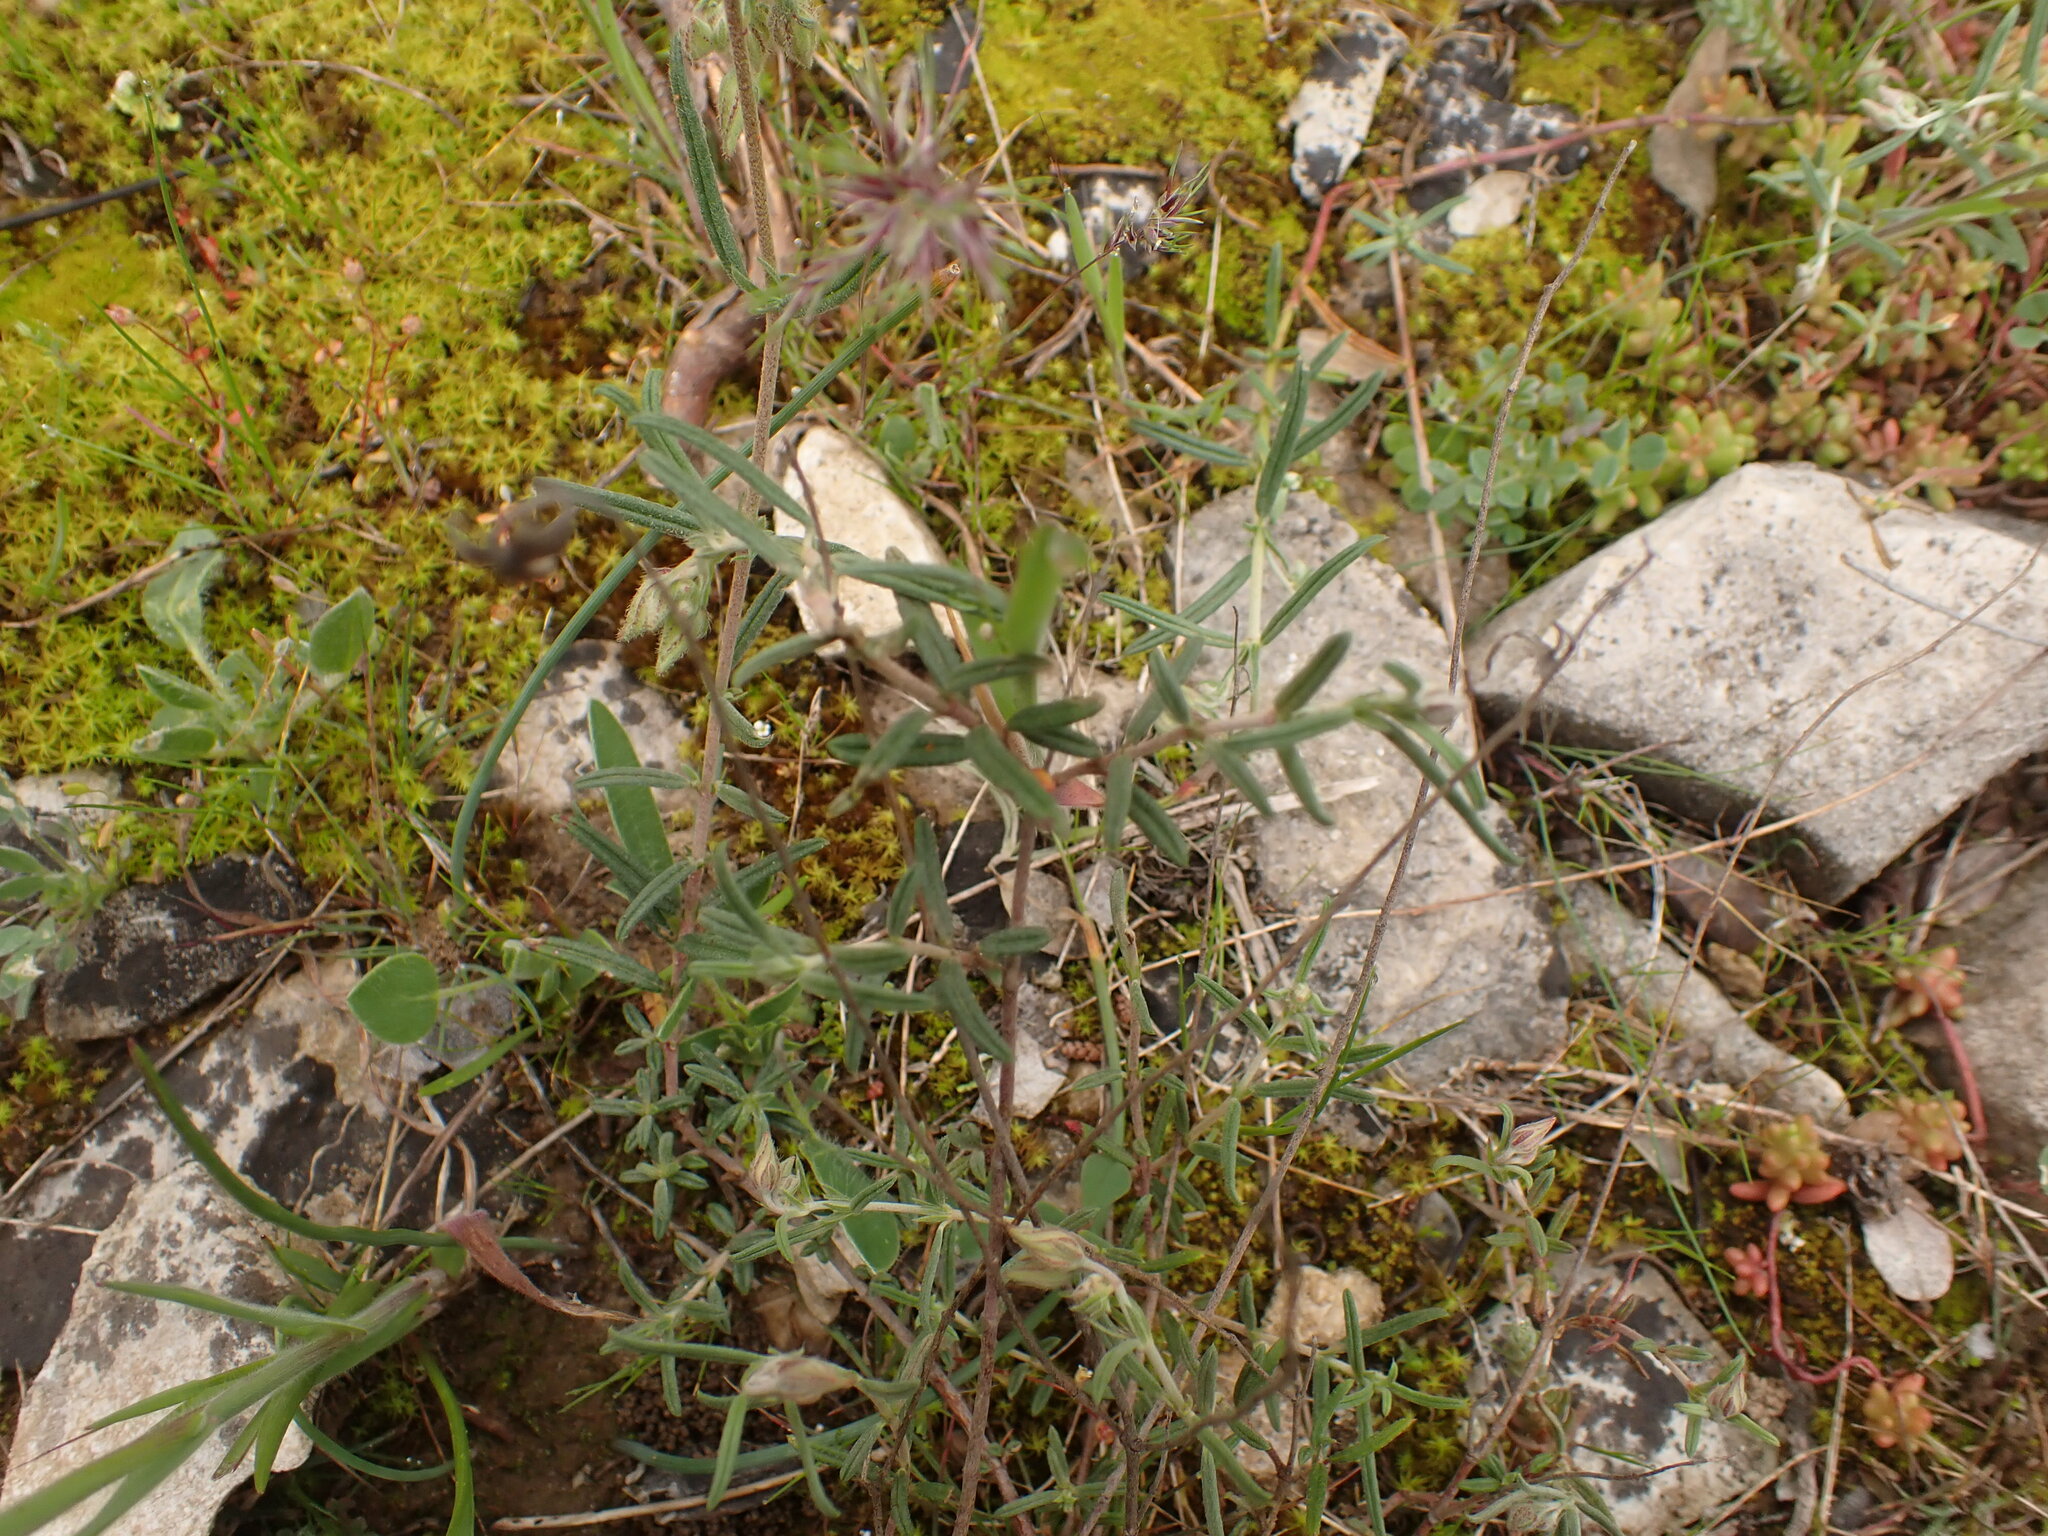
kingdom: Plantae
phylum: Tracheophyta
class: Magnoliopsida
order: Malvales
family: Cistaceae
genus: Helianthemum
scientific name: Helianthemum apenninum
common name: White rock-rose
